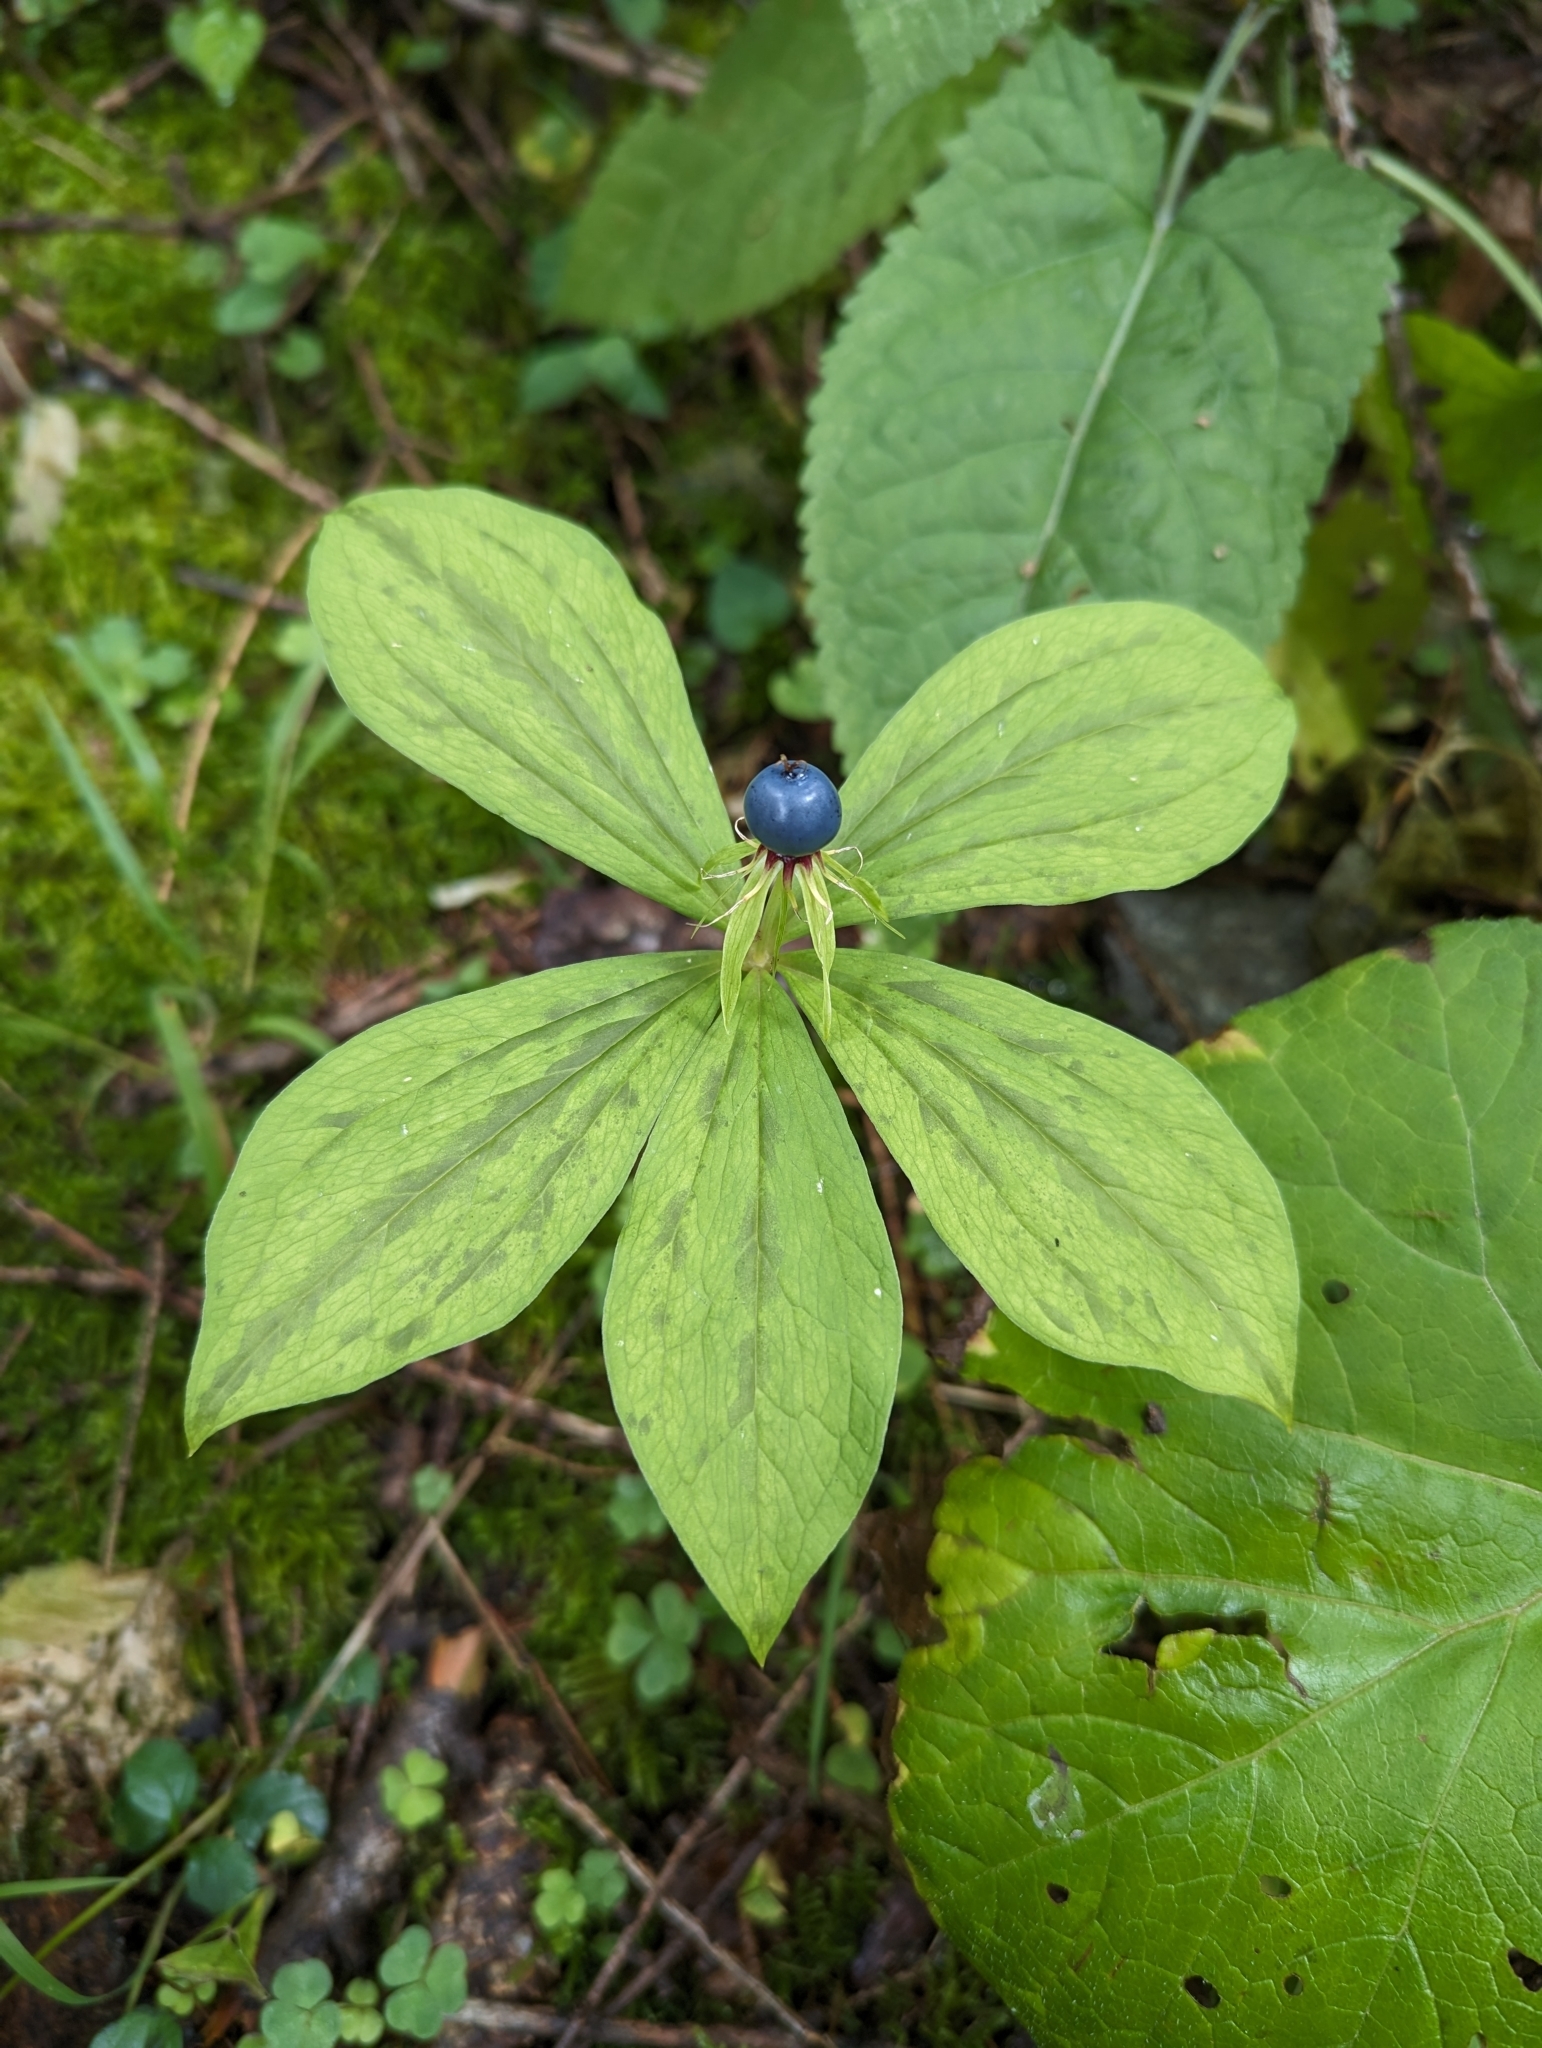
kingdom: Plantae
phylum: Tracheophyta
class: Liliopsida
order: Liliales
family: Melanthiaceae
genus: Paris
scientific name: Paris quadrifolia
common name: Herb-paris
